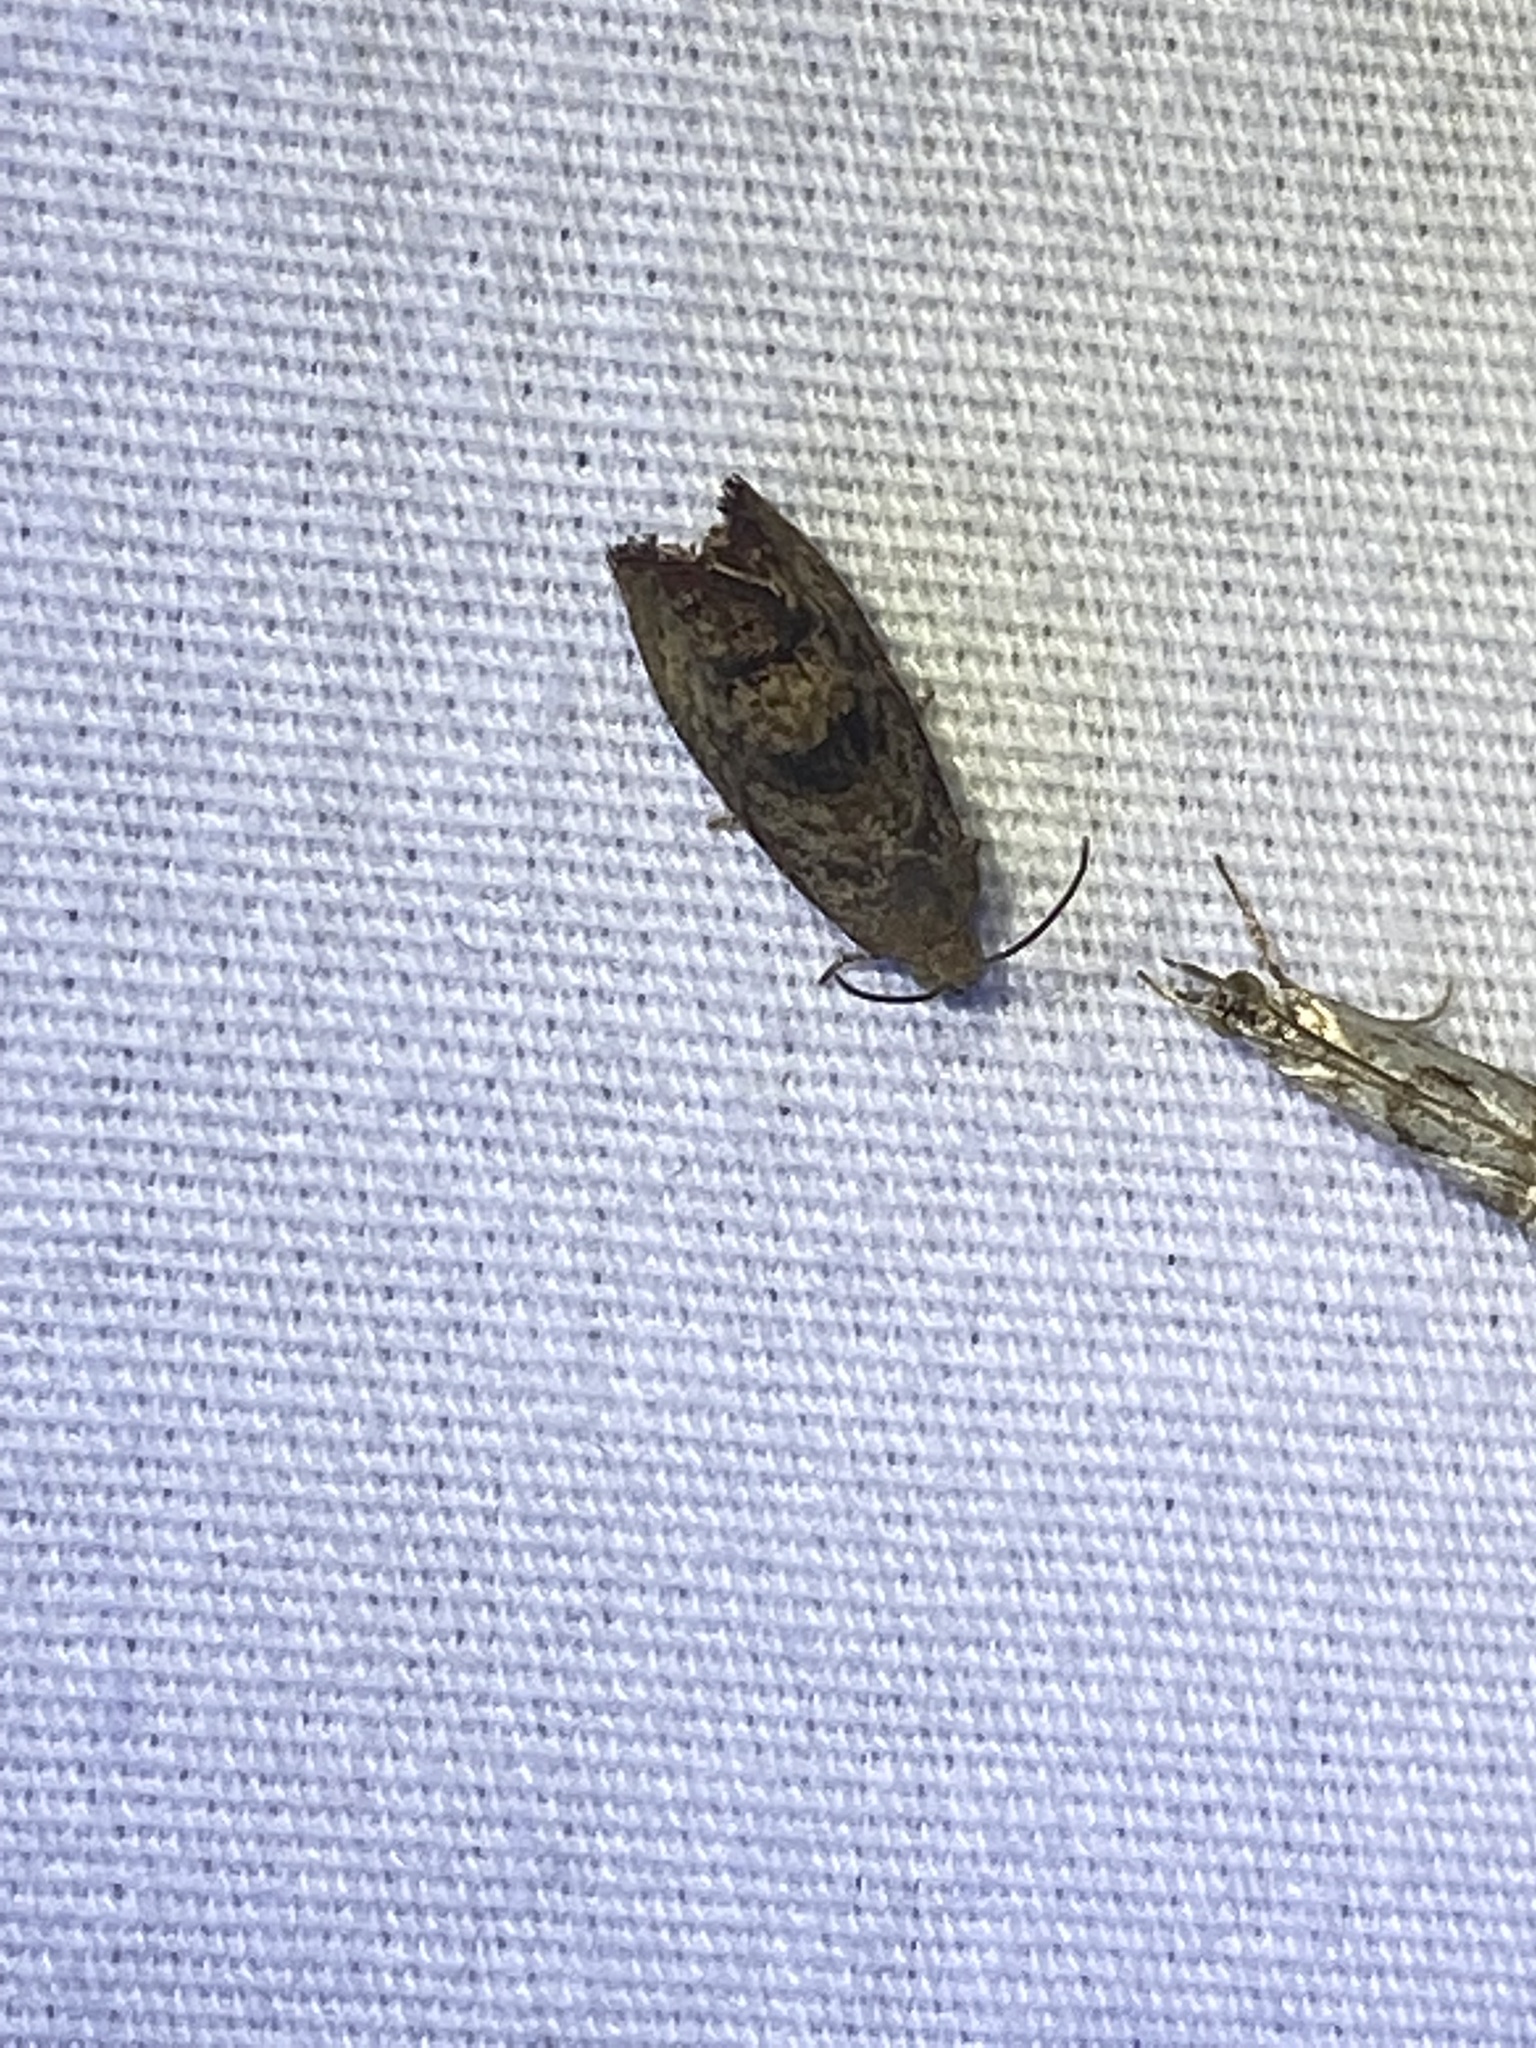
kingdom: Animalia
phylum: Arthropoda
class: Insecta
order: Lepidoptera
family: Tortricidae
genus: Cydia
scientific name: Cydia latiferreana
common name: Filbertworm moth
